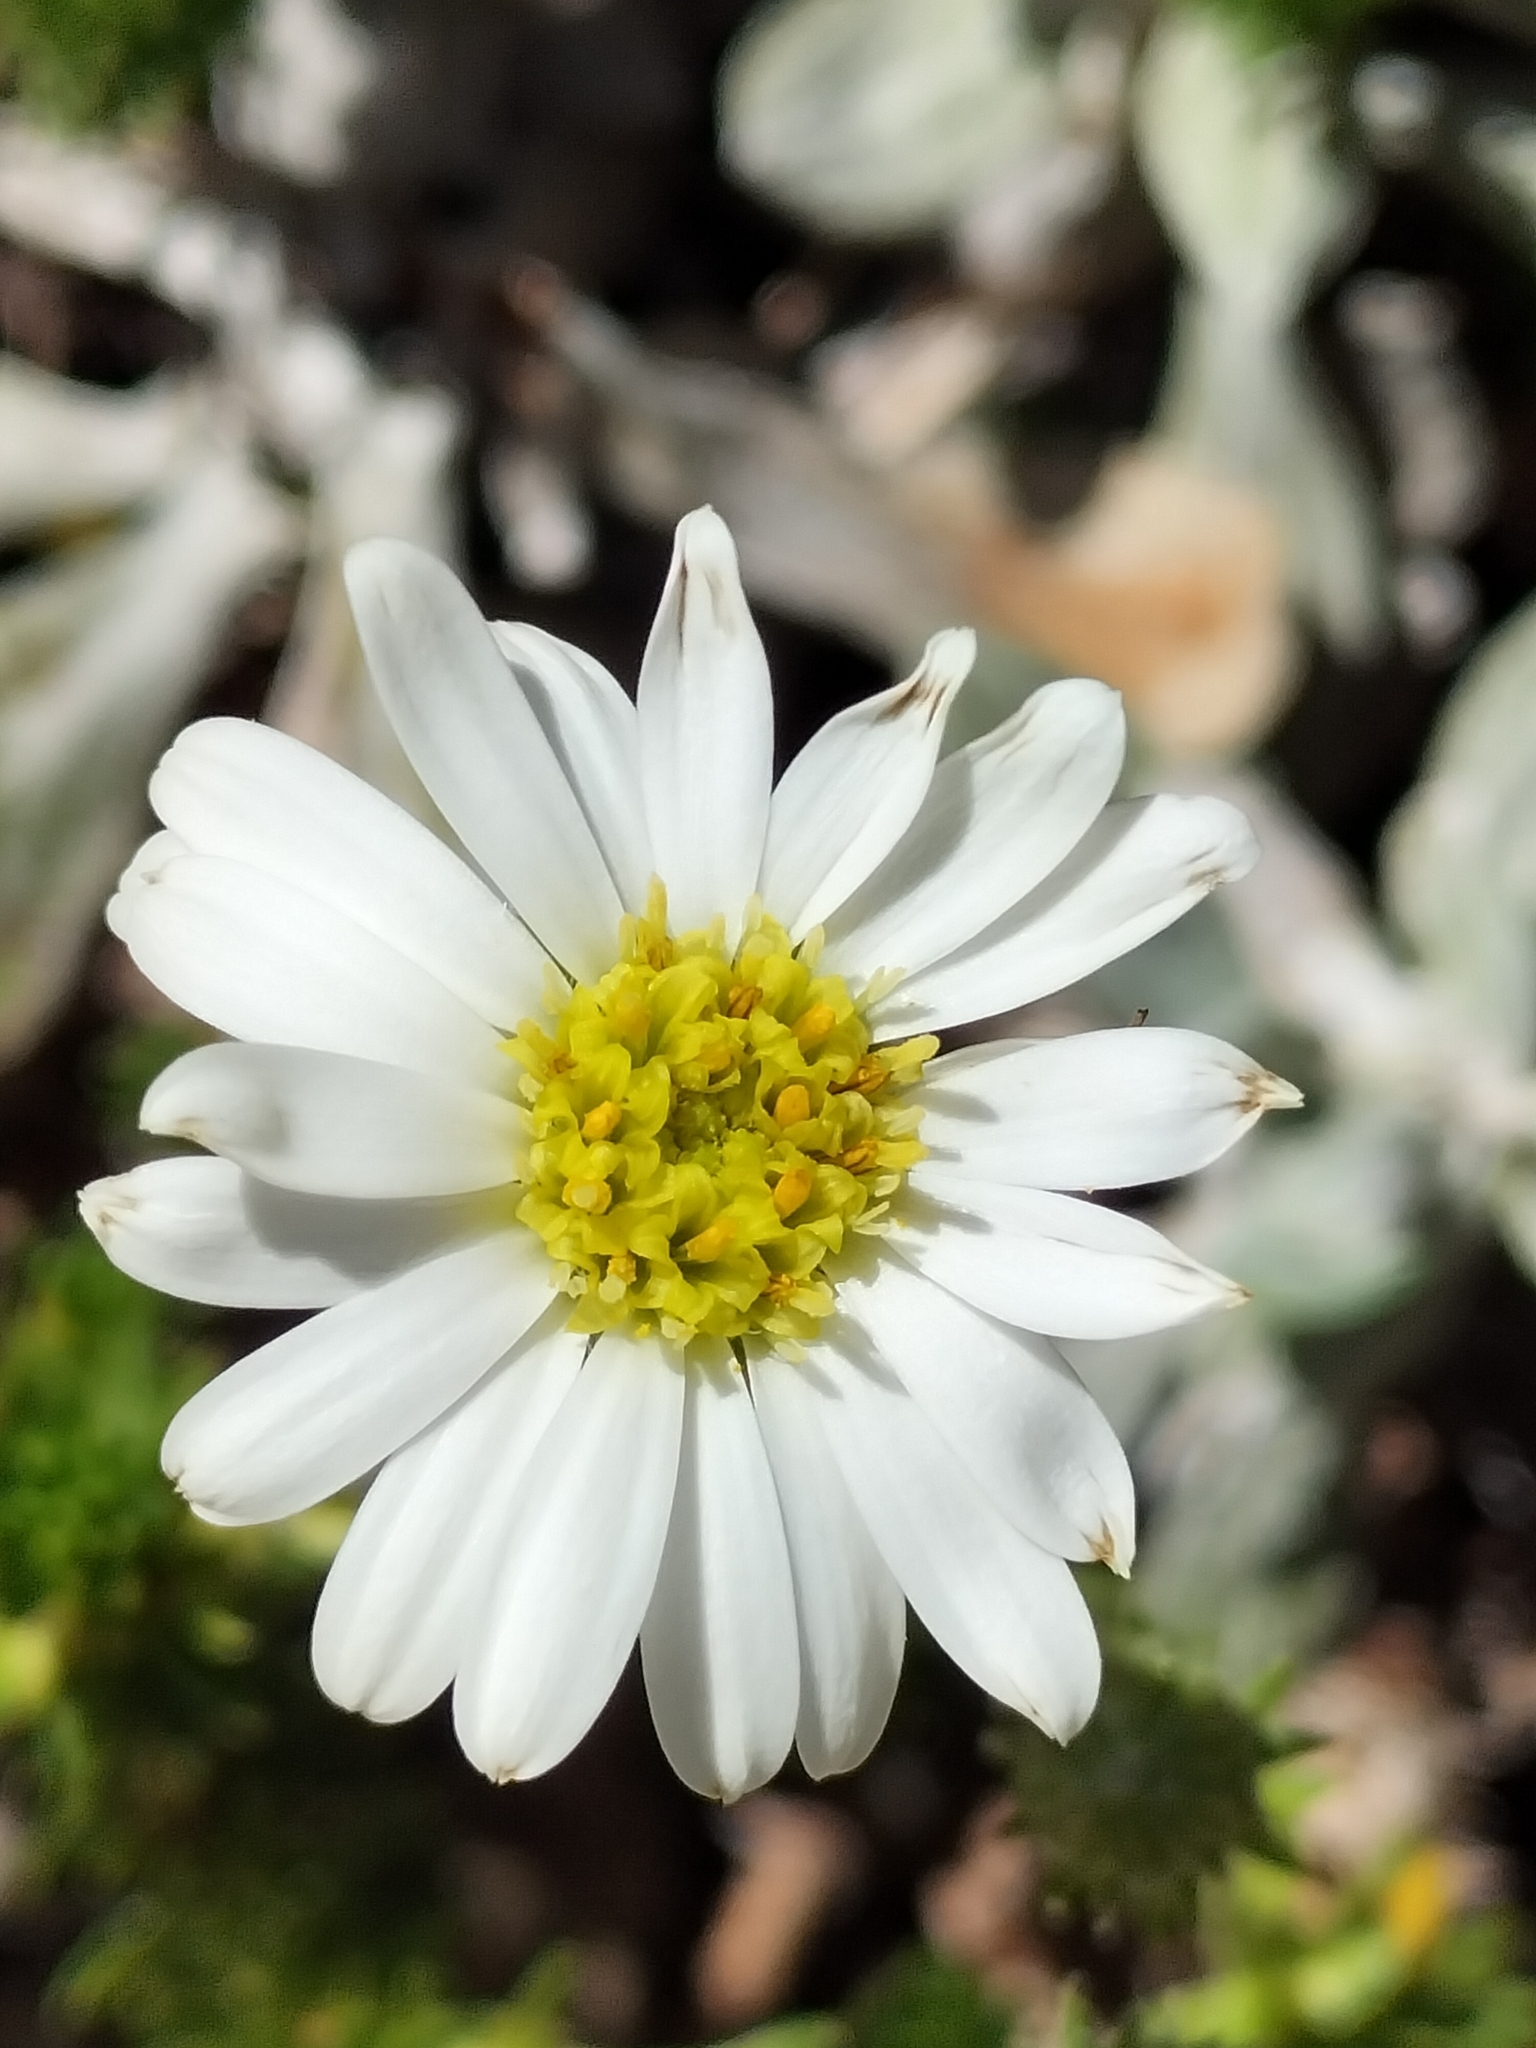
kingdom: Plantae
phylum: Tracheophyta
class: Magnoliopsida
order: Asterales
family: Asteraceae
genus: Celmisia
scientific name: Celmisia lateralis
